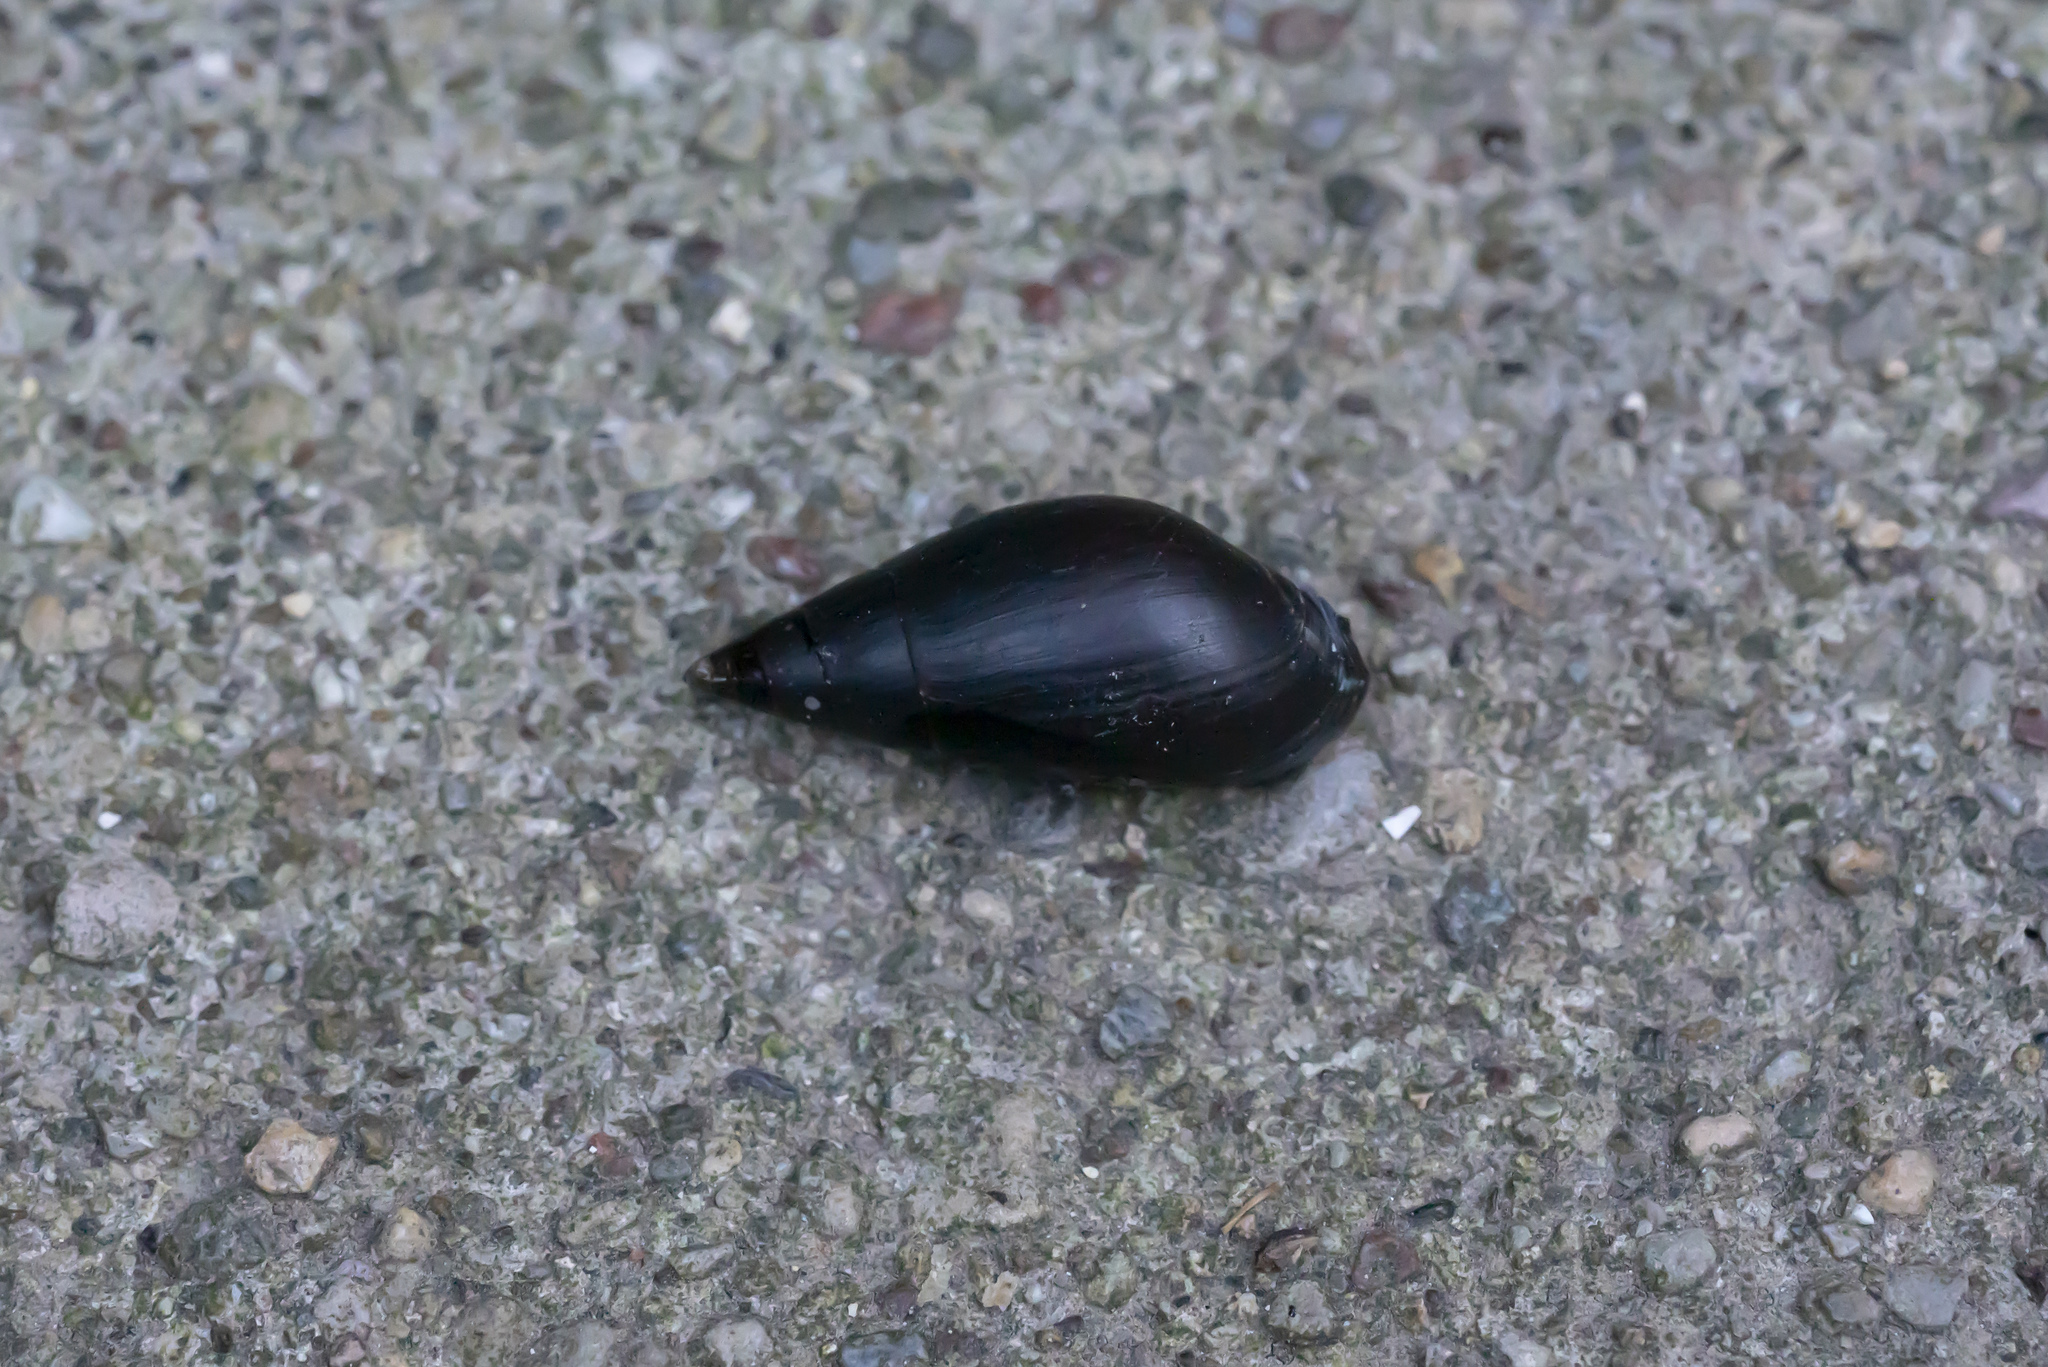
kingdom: Animalia
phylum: Mollusca
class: Gastropoda
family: Melanopsidae
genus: Melanopsis
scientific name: Melanopsis wagneri
